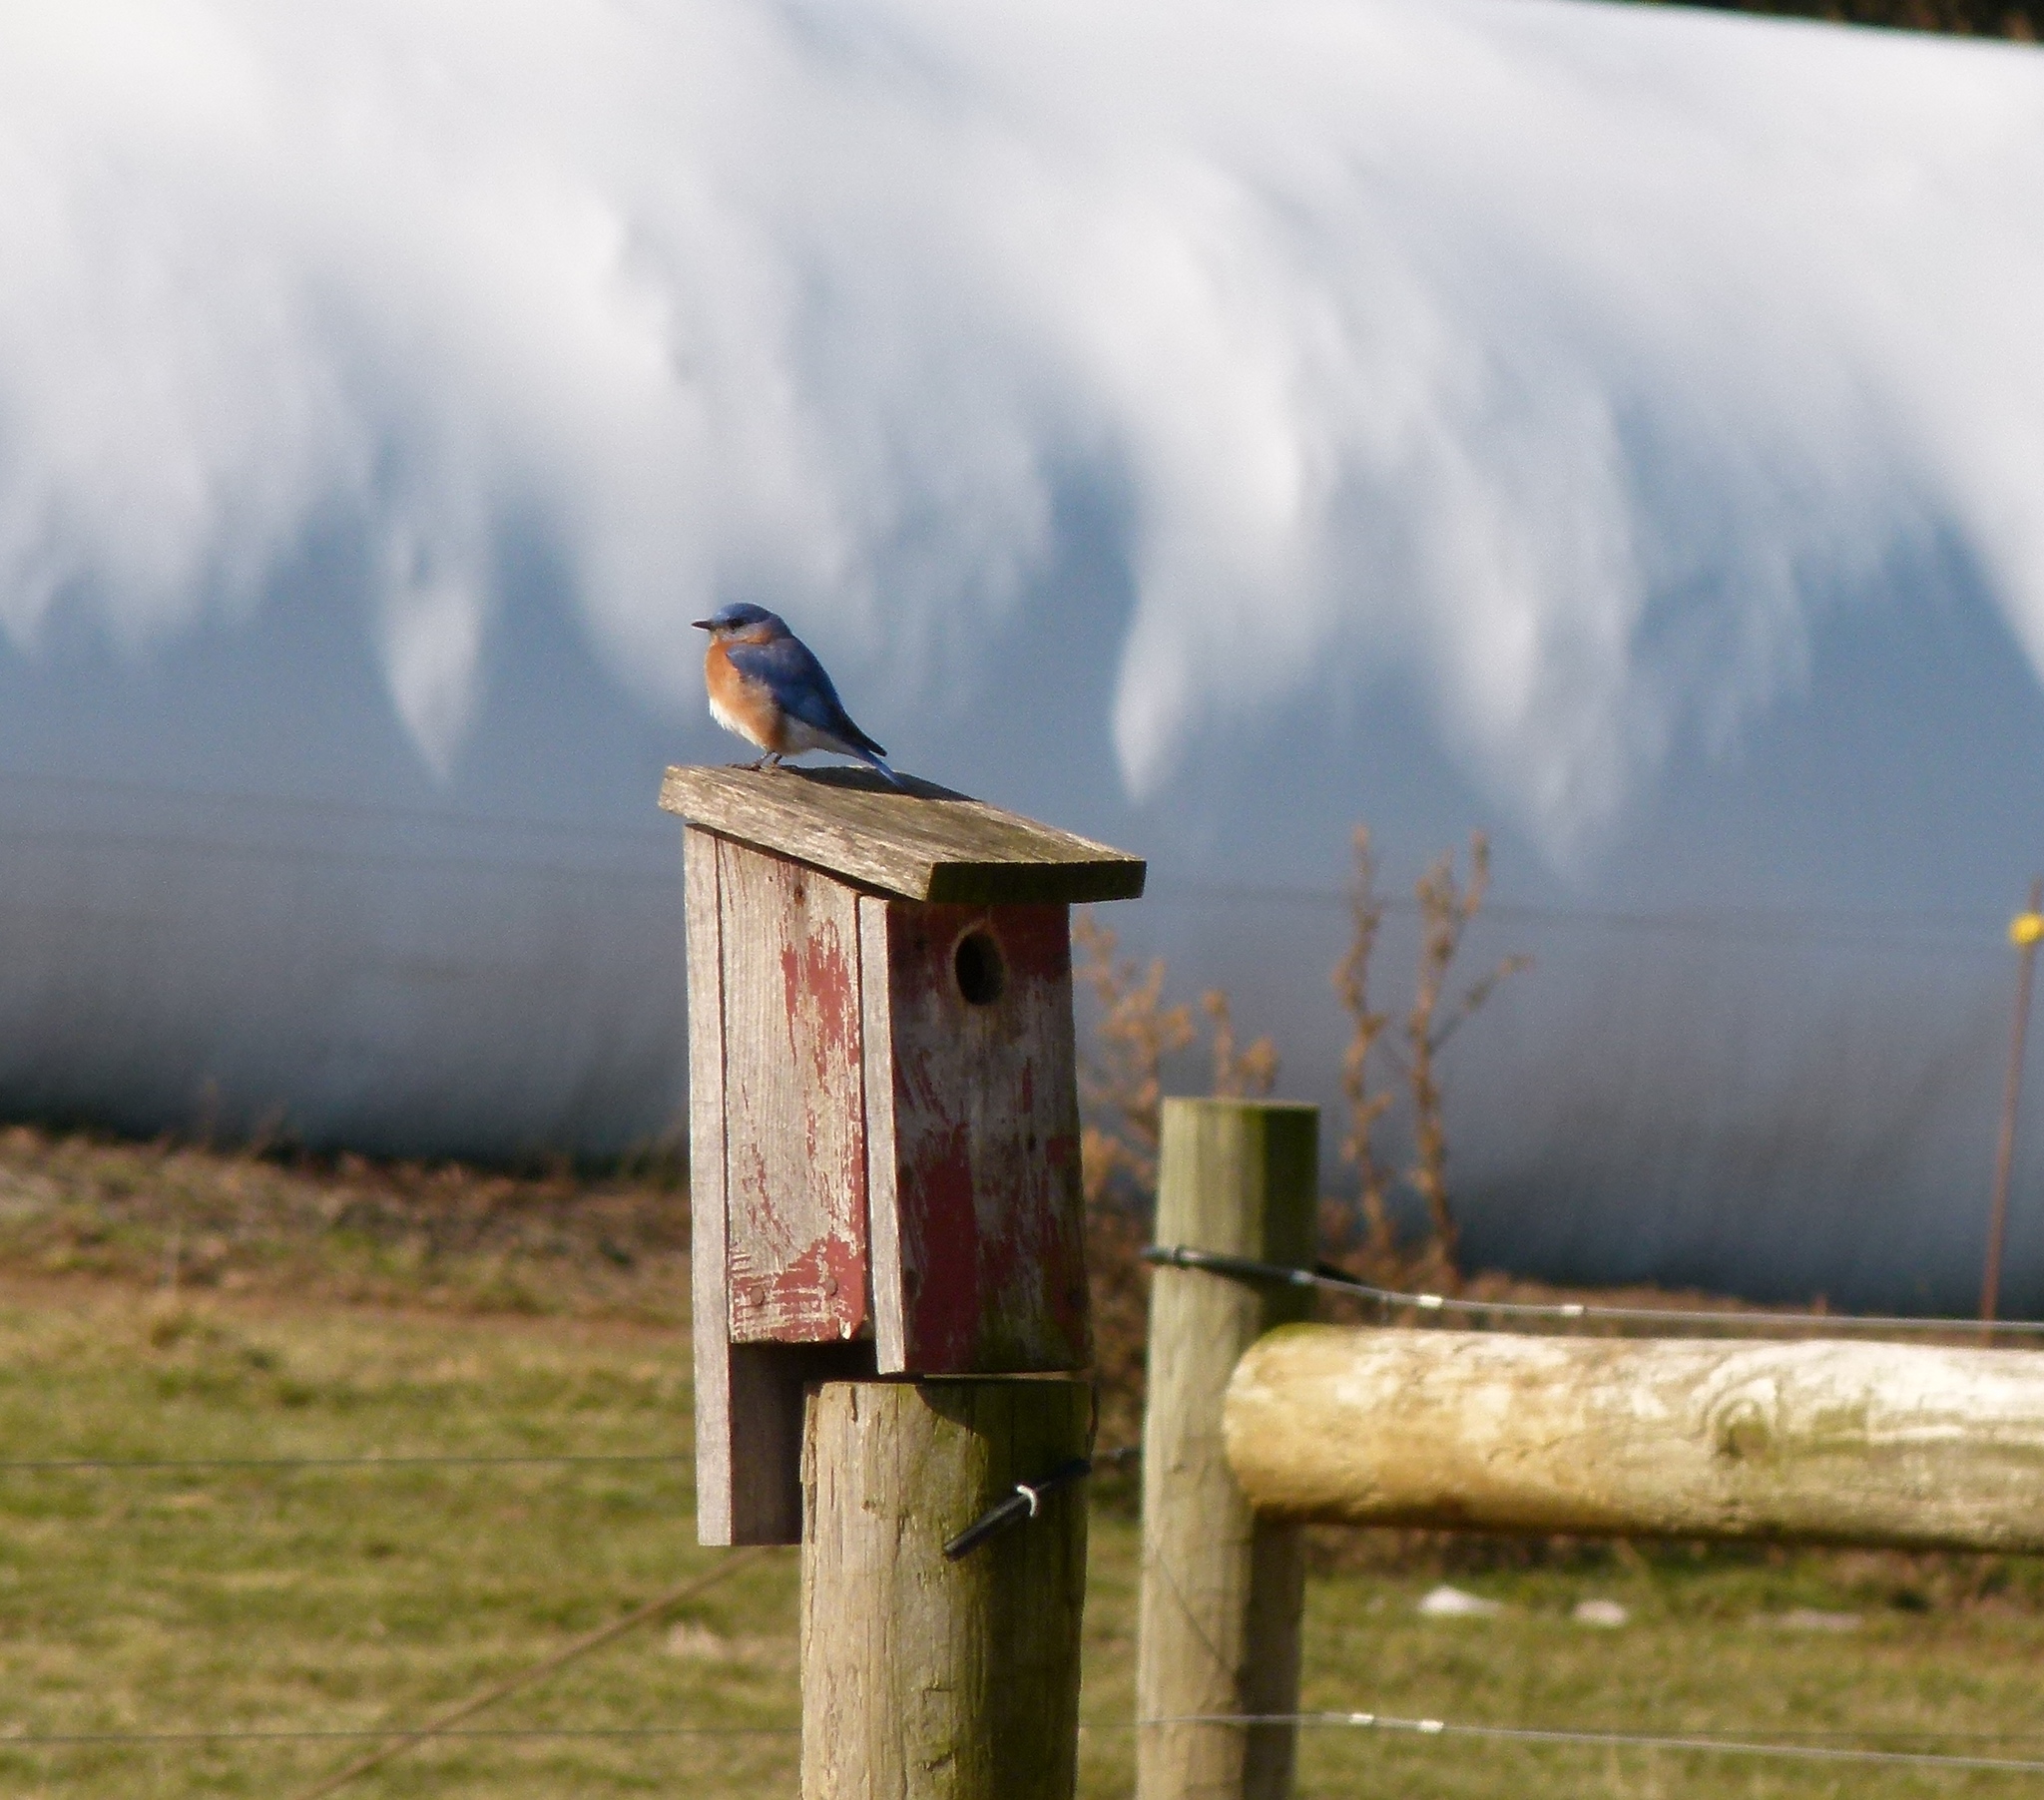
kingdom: Animalia
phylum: Chordata
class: Aves
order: Passeriformes
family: Turdidae
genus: Sialia
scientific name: Sialia sialis
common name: Eastern bluebird
